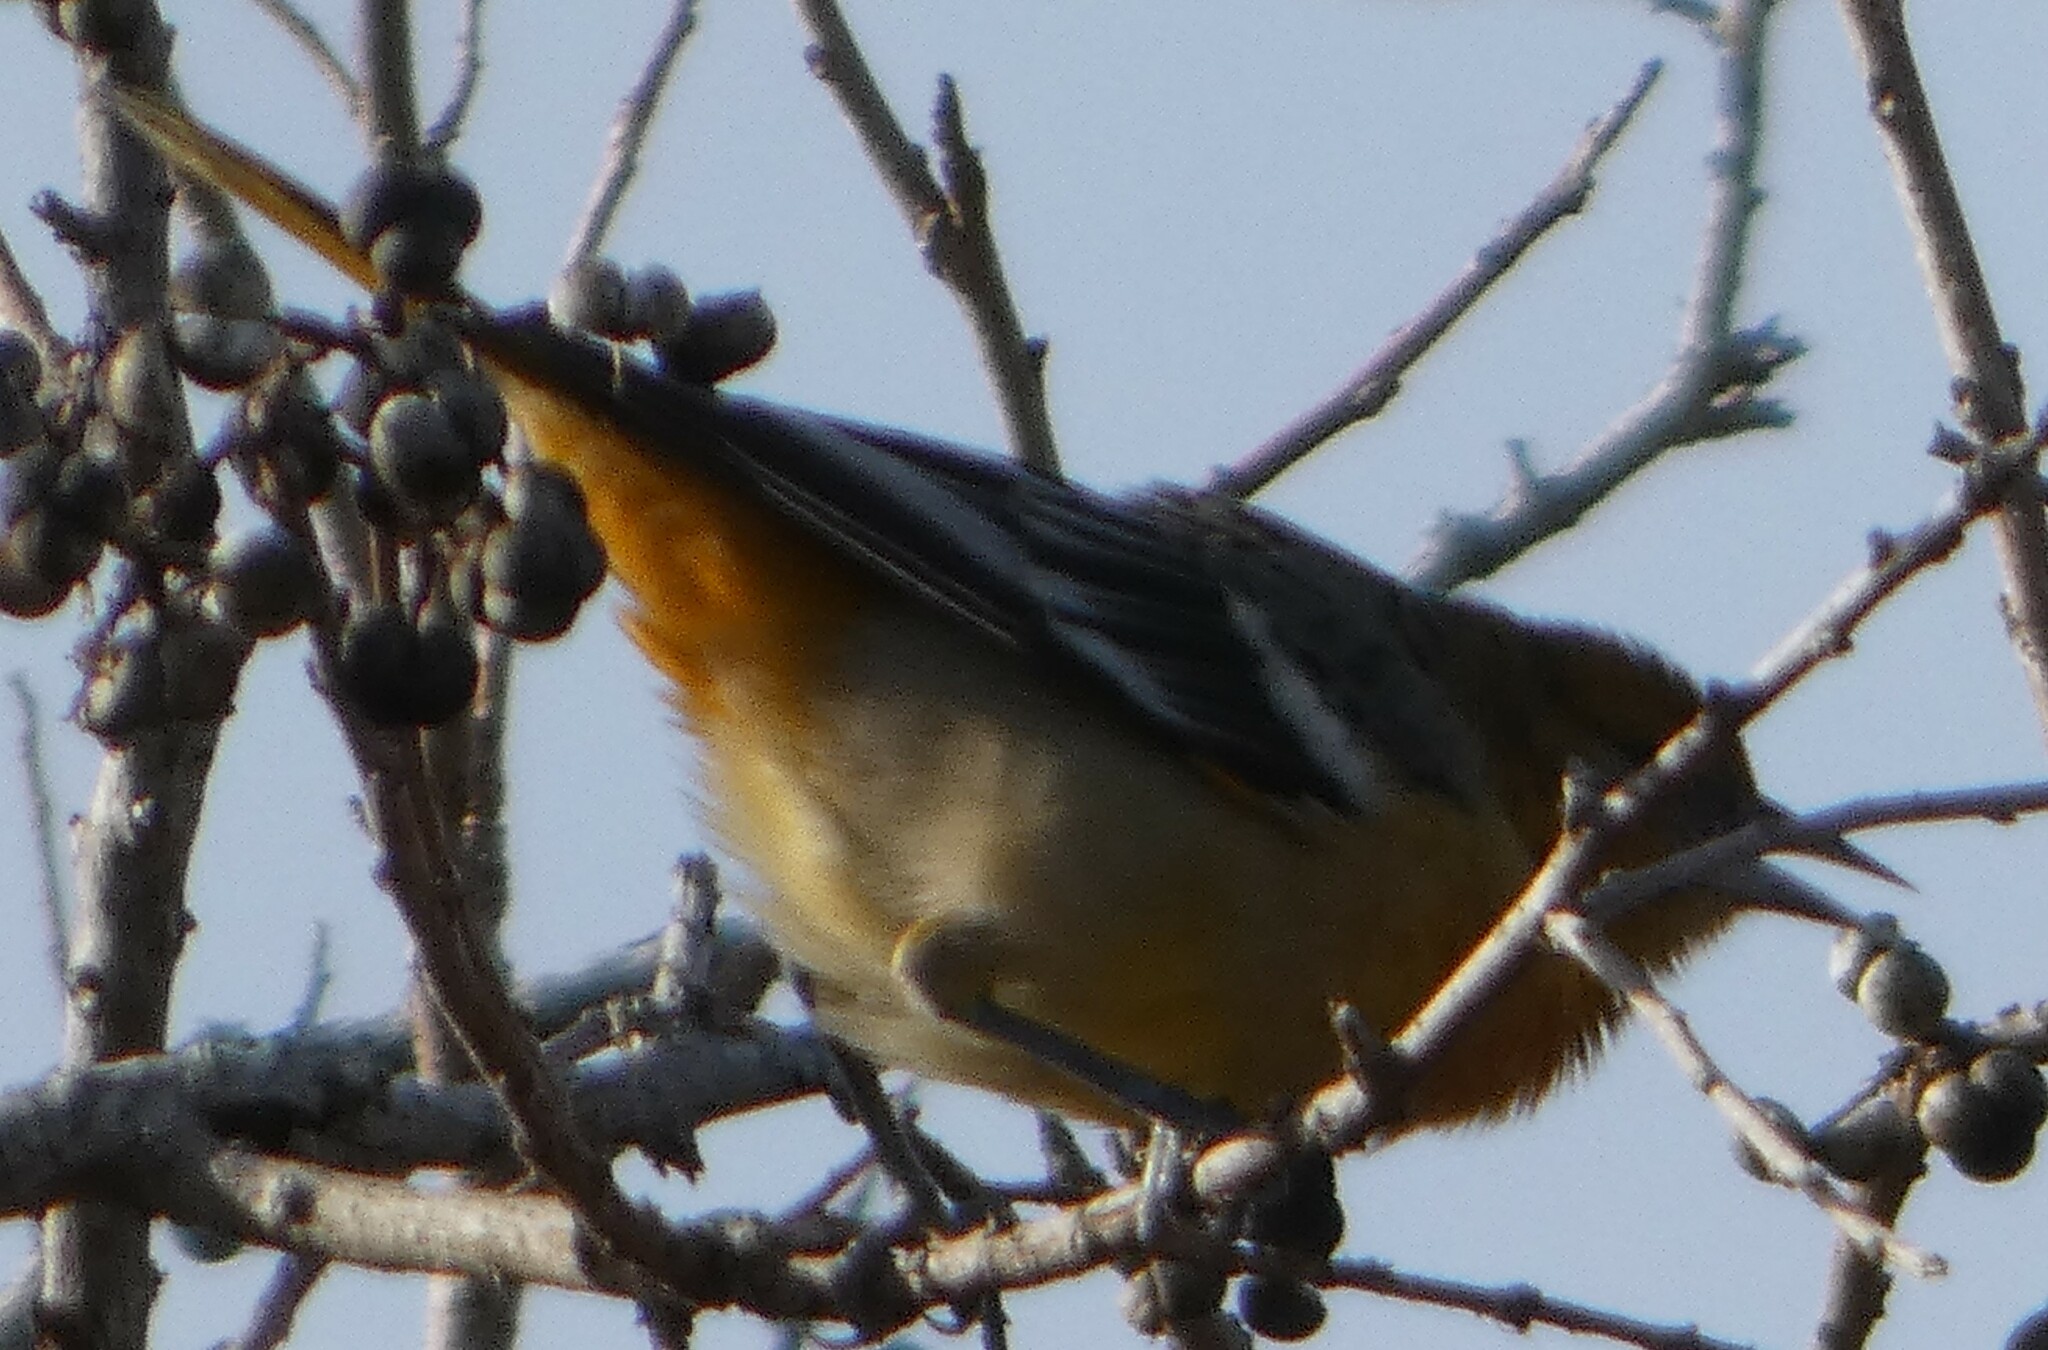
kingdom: Animalia
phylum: Chordata
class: Aves
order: Passeriformes
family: Icteridae
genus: Icterus
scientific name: Icterus galbula
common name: Baltimore oriole
